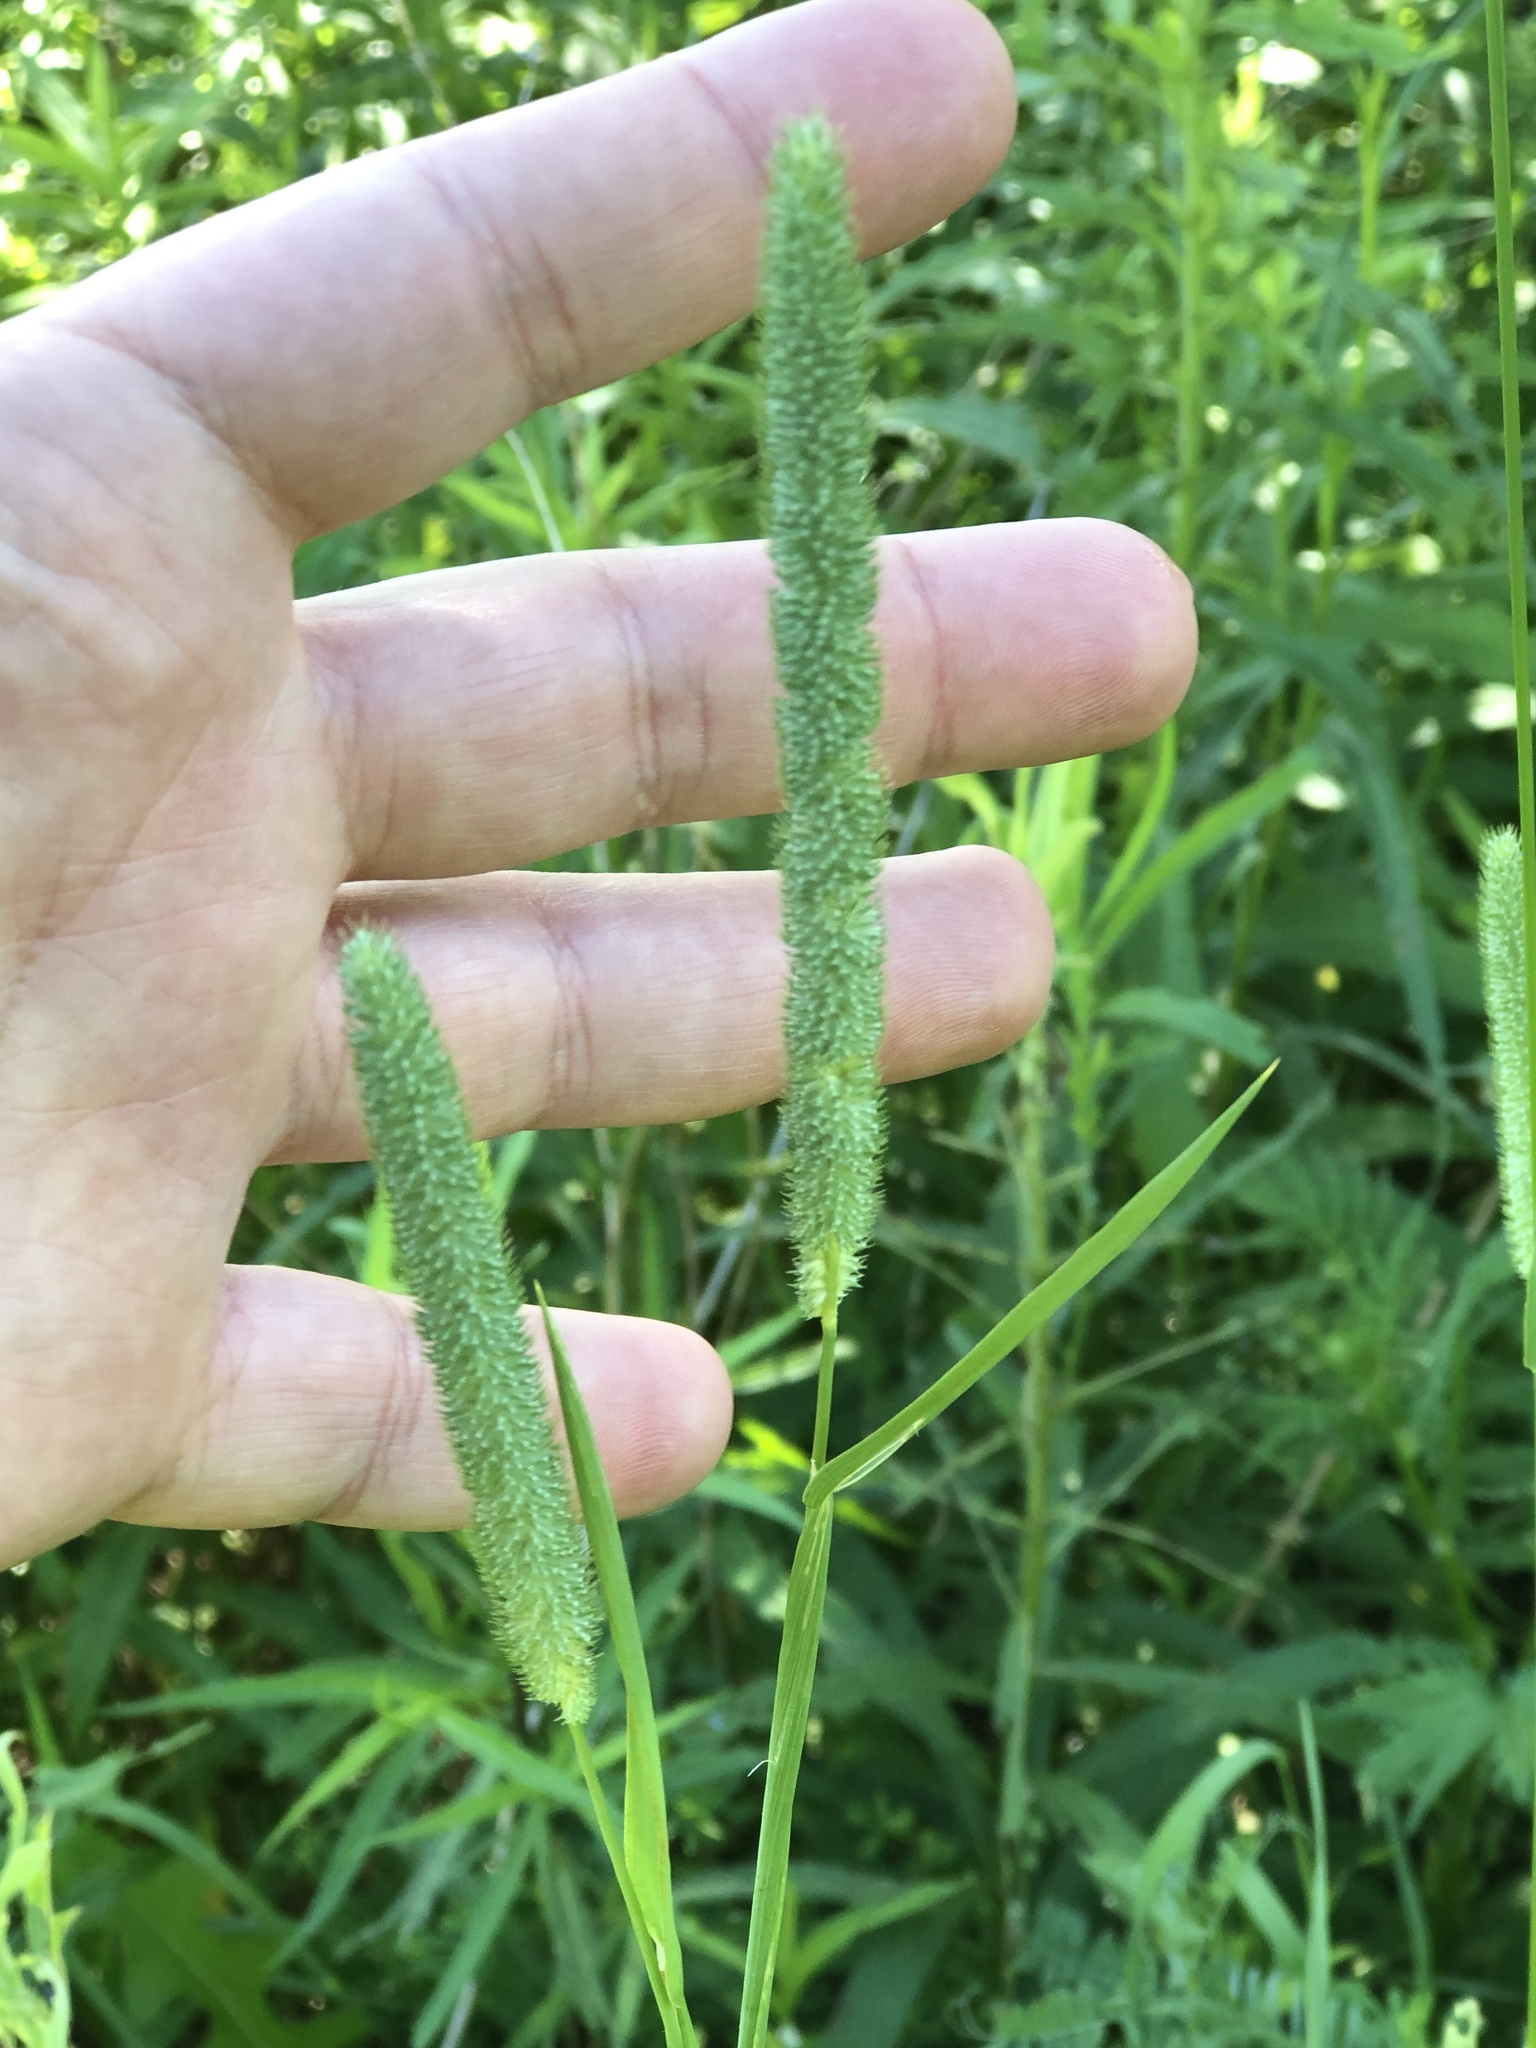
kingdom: Plantae
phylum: Tracheophyta
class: Liliopsida
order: Poales
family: Poaceae
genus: Phleum
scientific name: Phleum pratense
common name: Timothy grass
